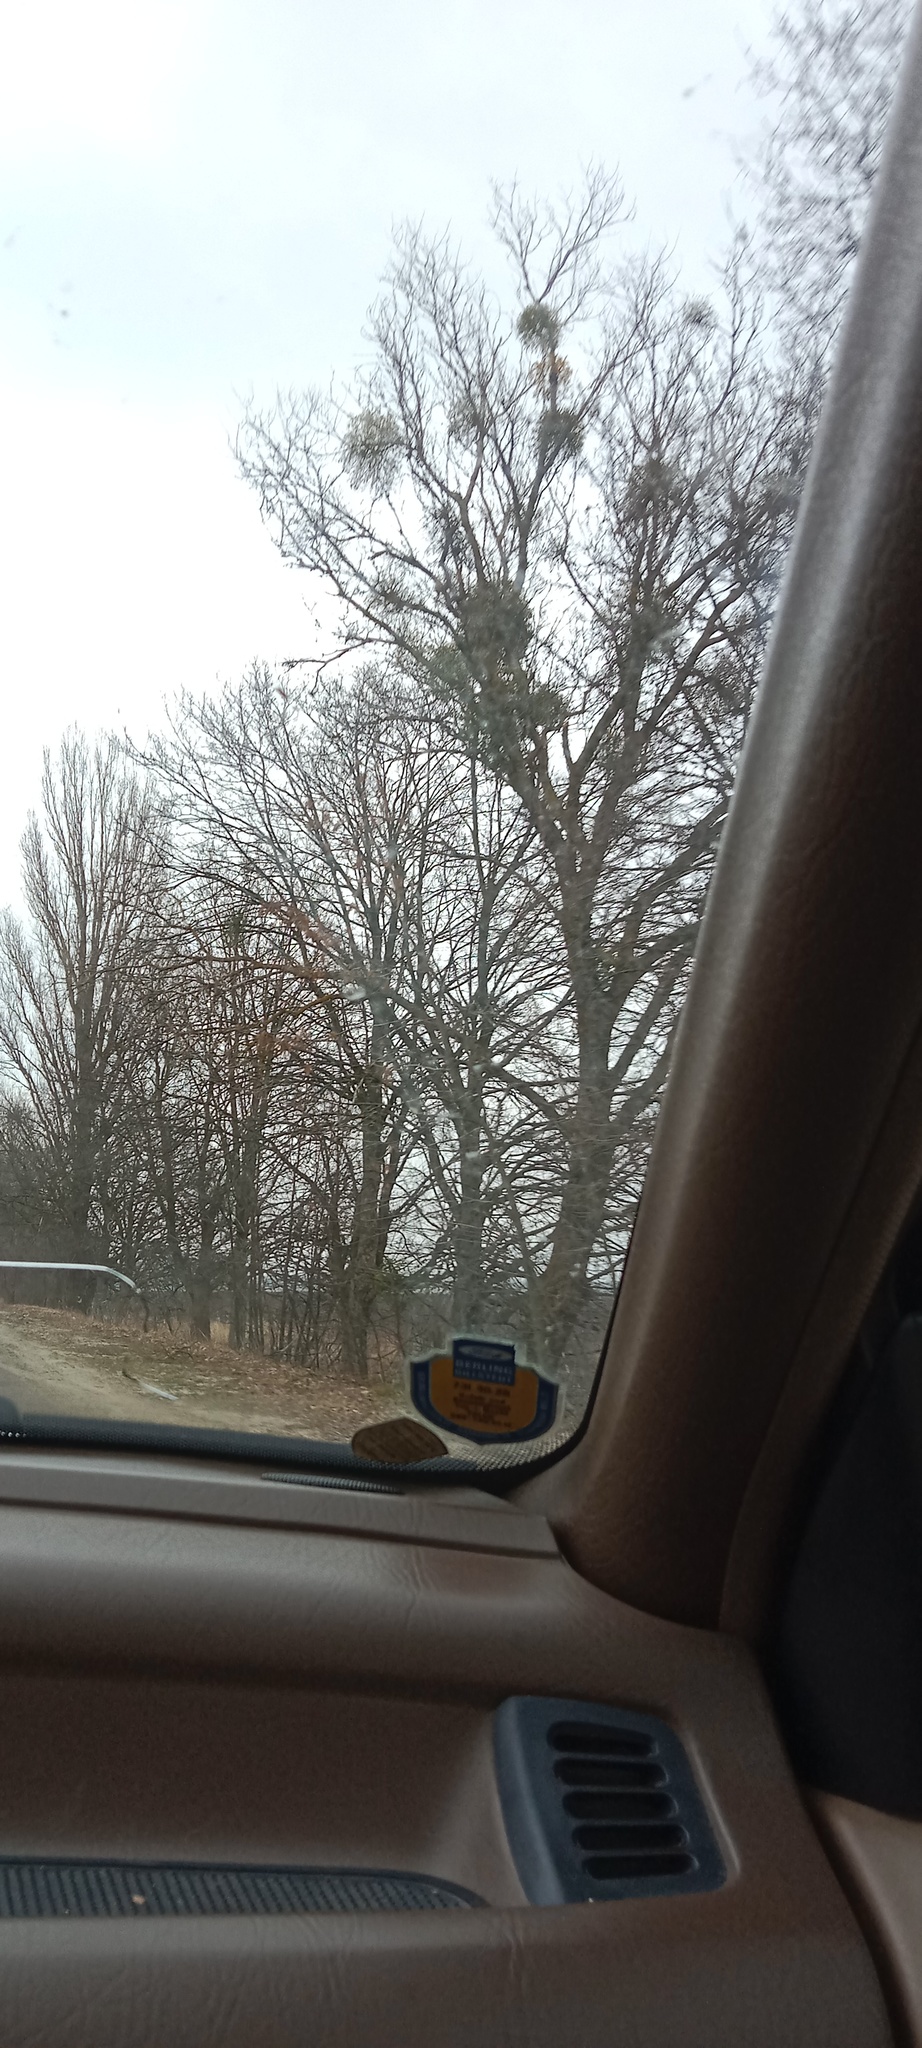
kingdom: Plantae
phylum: Tracheophyta
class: Magnoliopsida
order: Santalales
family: Viscaceae
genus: Viscum
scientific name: Viscum album
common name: Mistletoe
